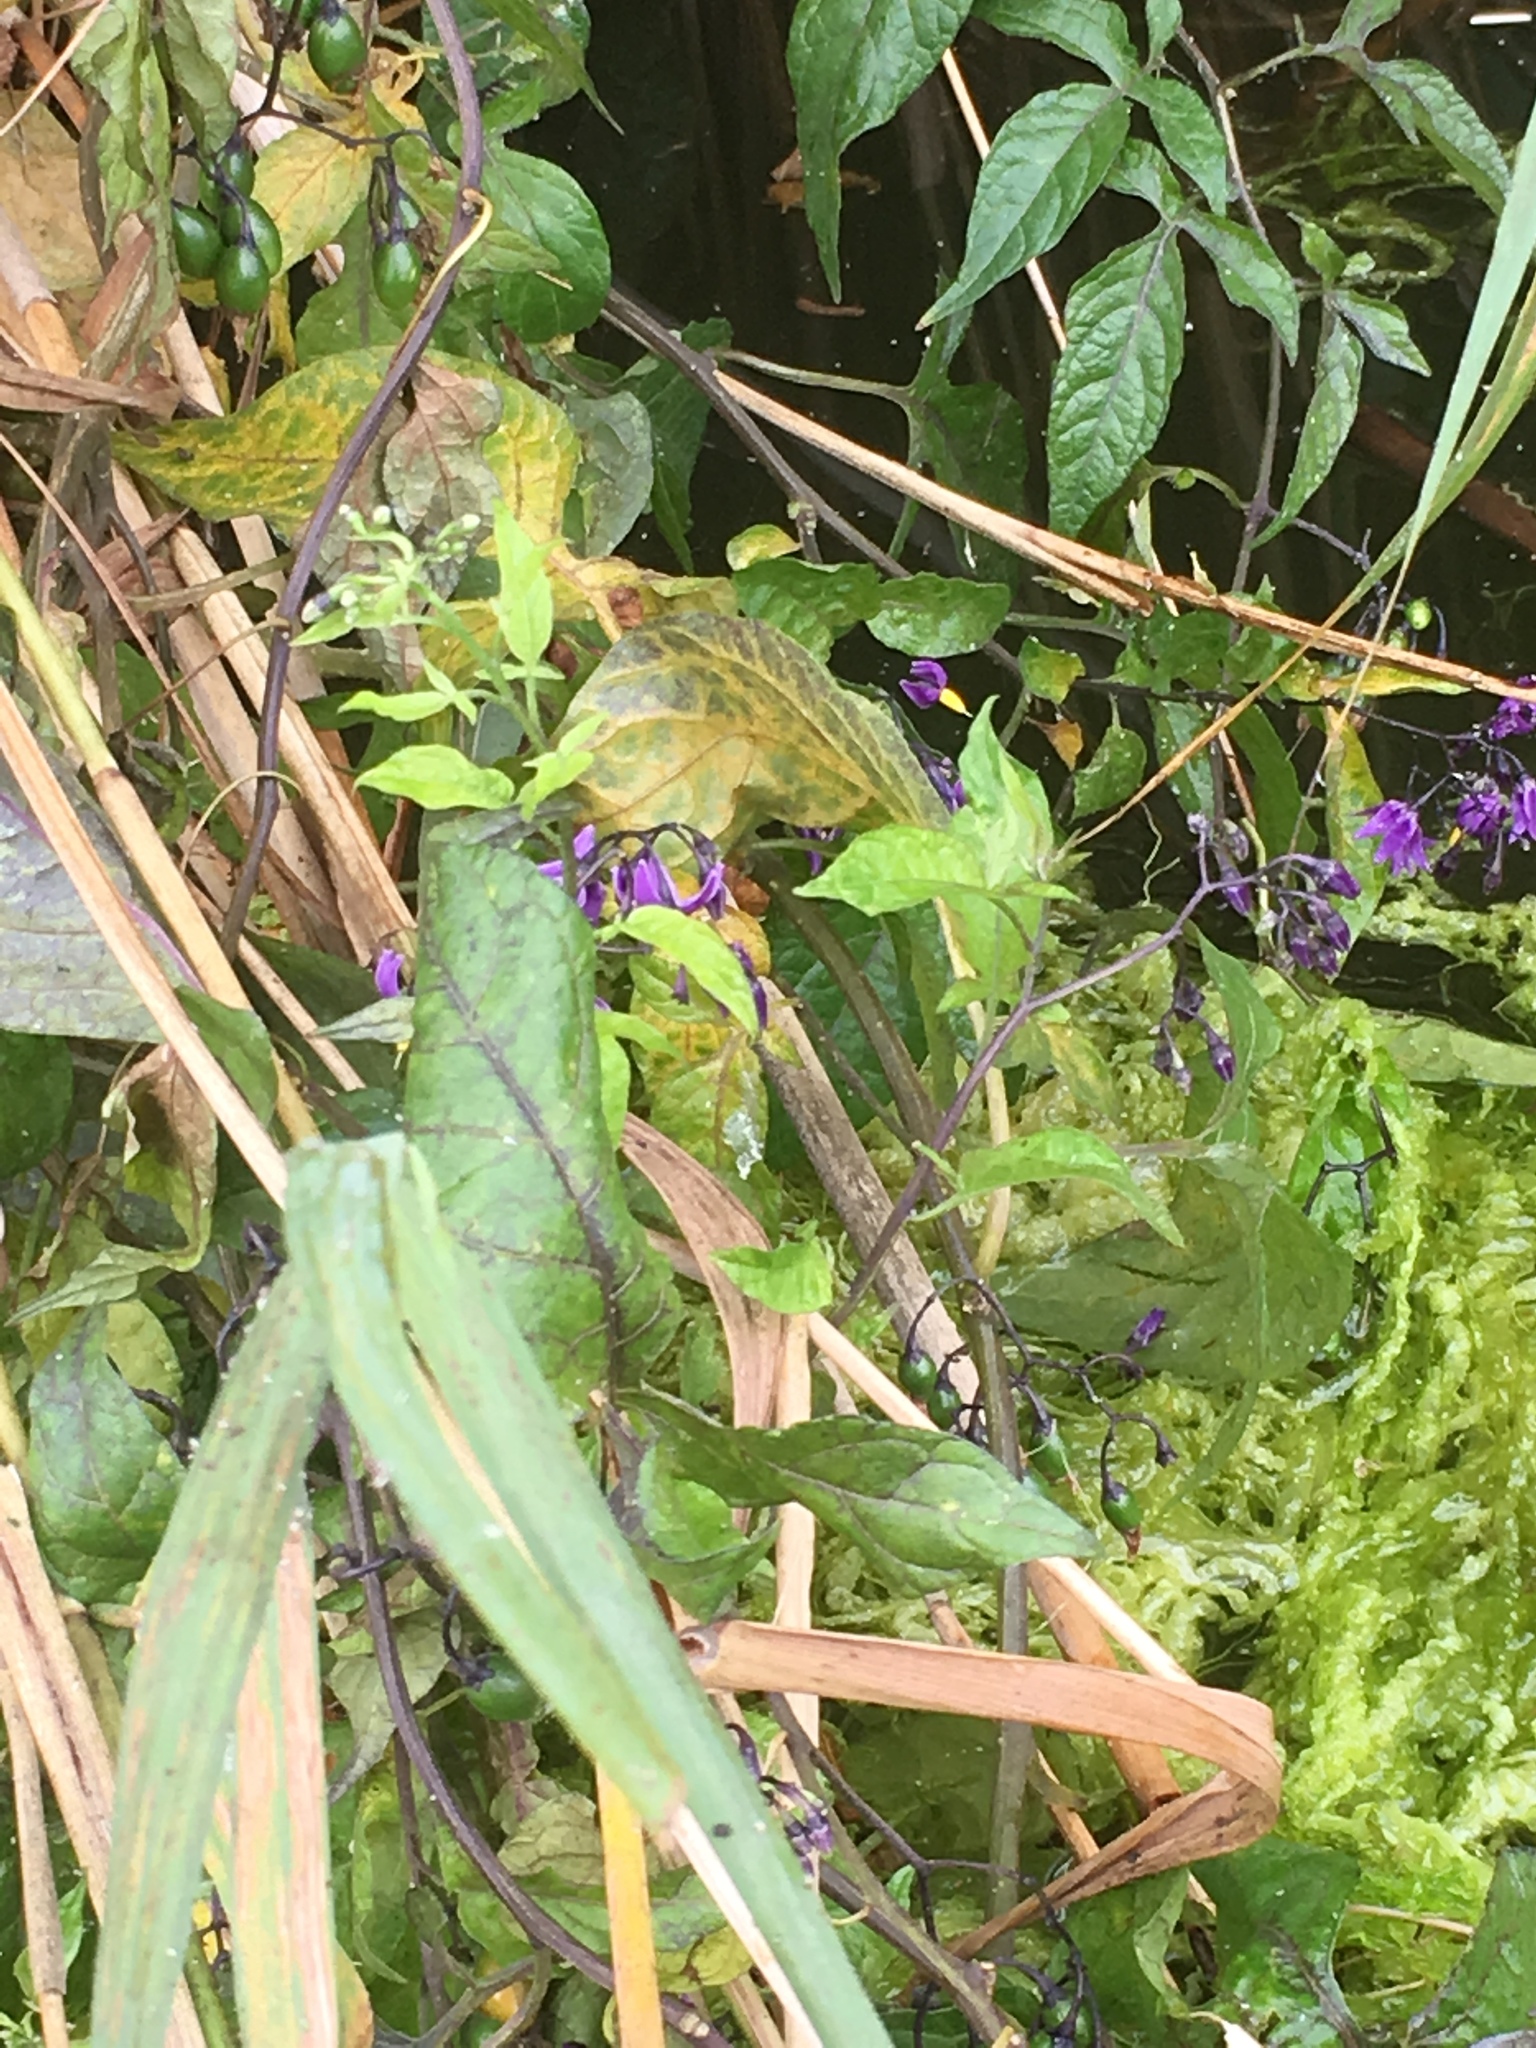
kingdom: Plantae
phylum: Tracheophyta
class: Magnoliopsida
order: Solanales
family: Solanaceae
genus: Solanum
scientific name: Solanum dulcamara
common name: Climbing nightshade
